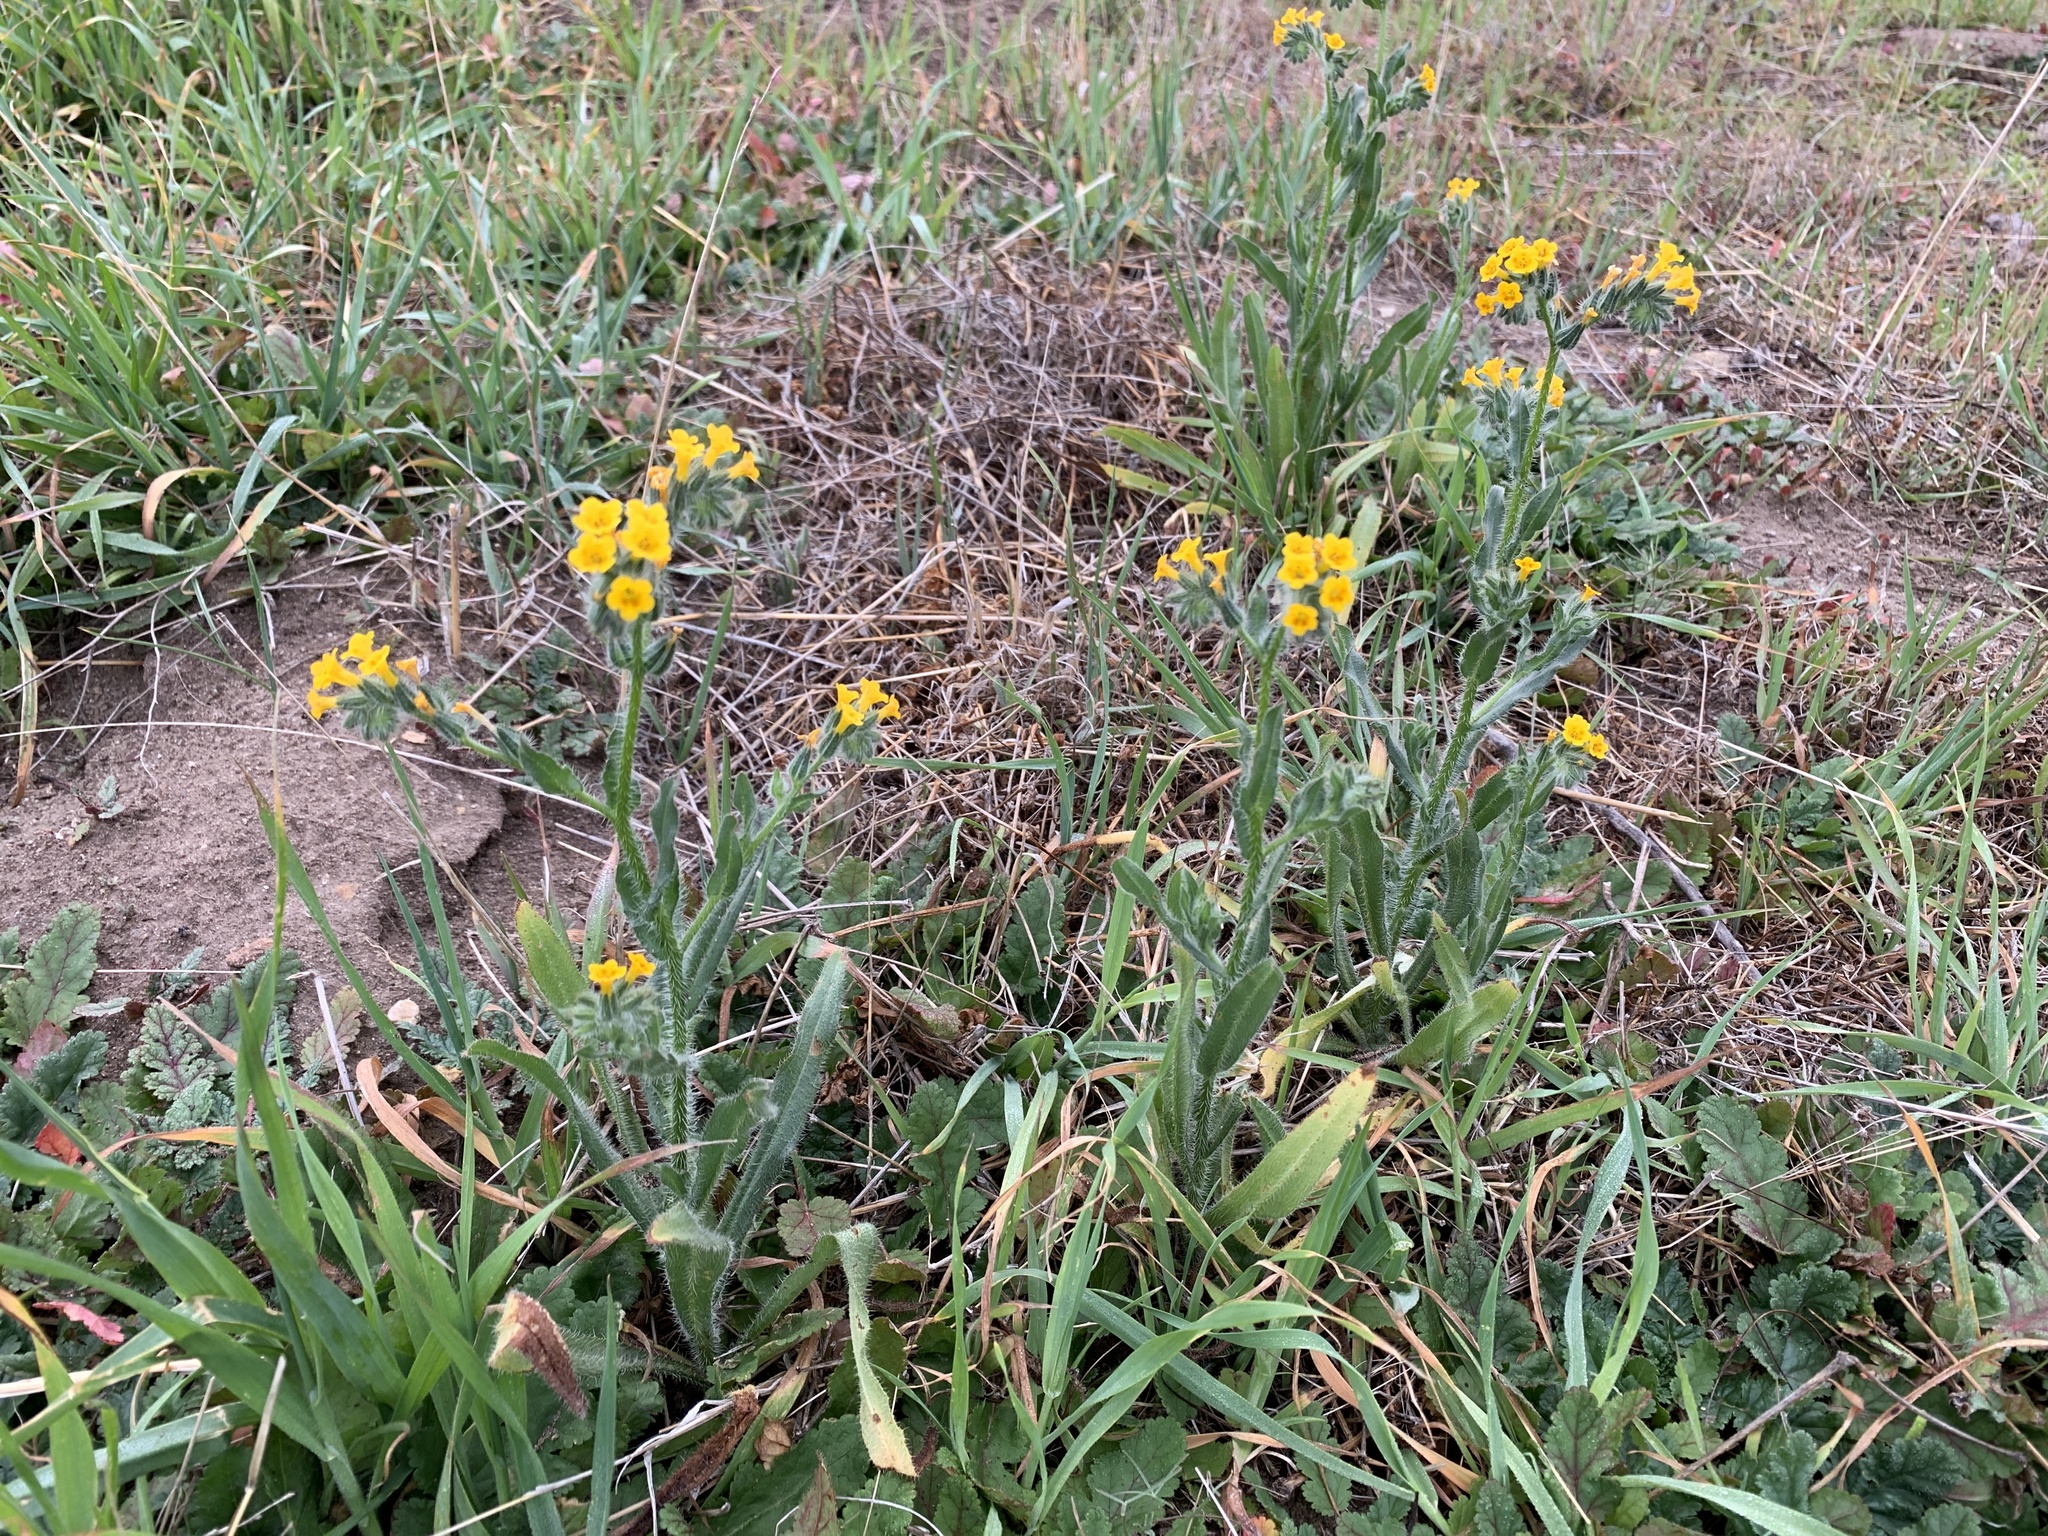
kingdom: Plantae
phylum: Tracheophyta
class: Magnoliopsida
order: Boraginales
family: Boraginaceae
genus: Amsinckia
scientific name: Amsinckia menziesii
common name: Menzies' fiddleneck
